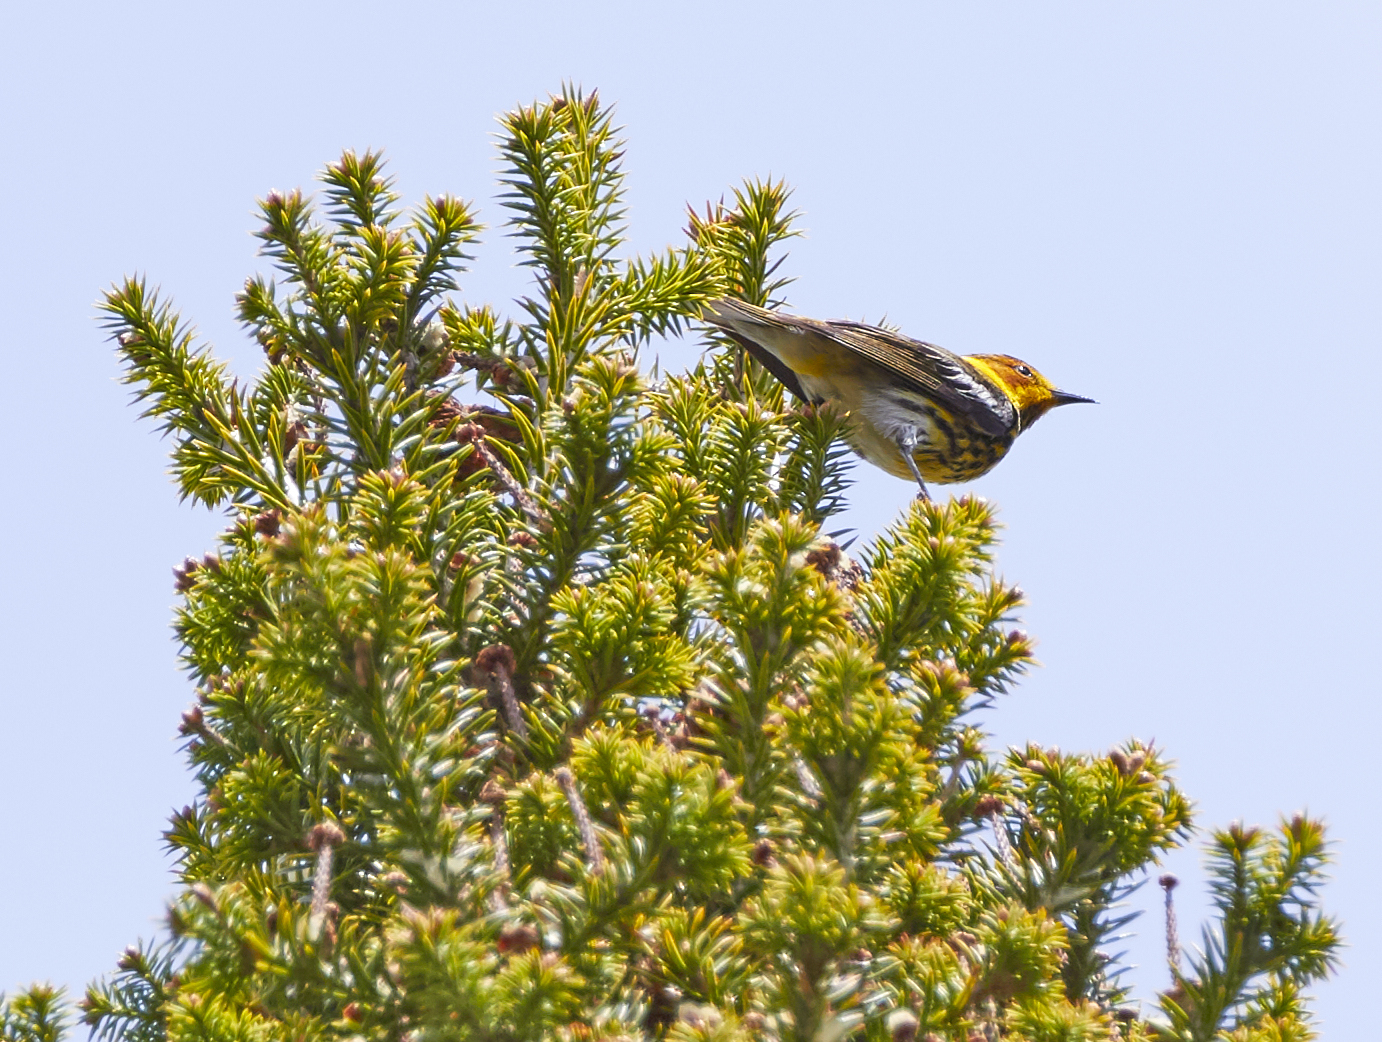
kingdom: Animalia
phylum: Chordata
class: Aves
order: Passeriformes
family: Parulidae
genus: Setophaga
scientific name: Setophaga tigrina
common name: Cape may warbler
